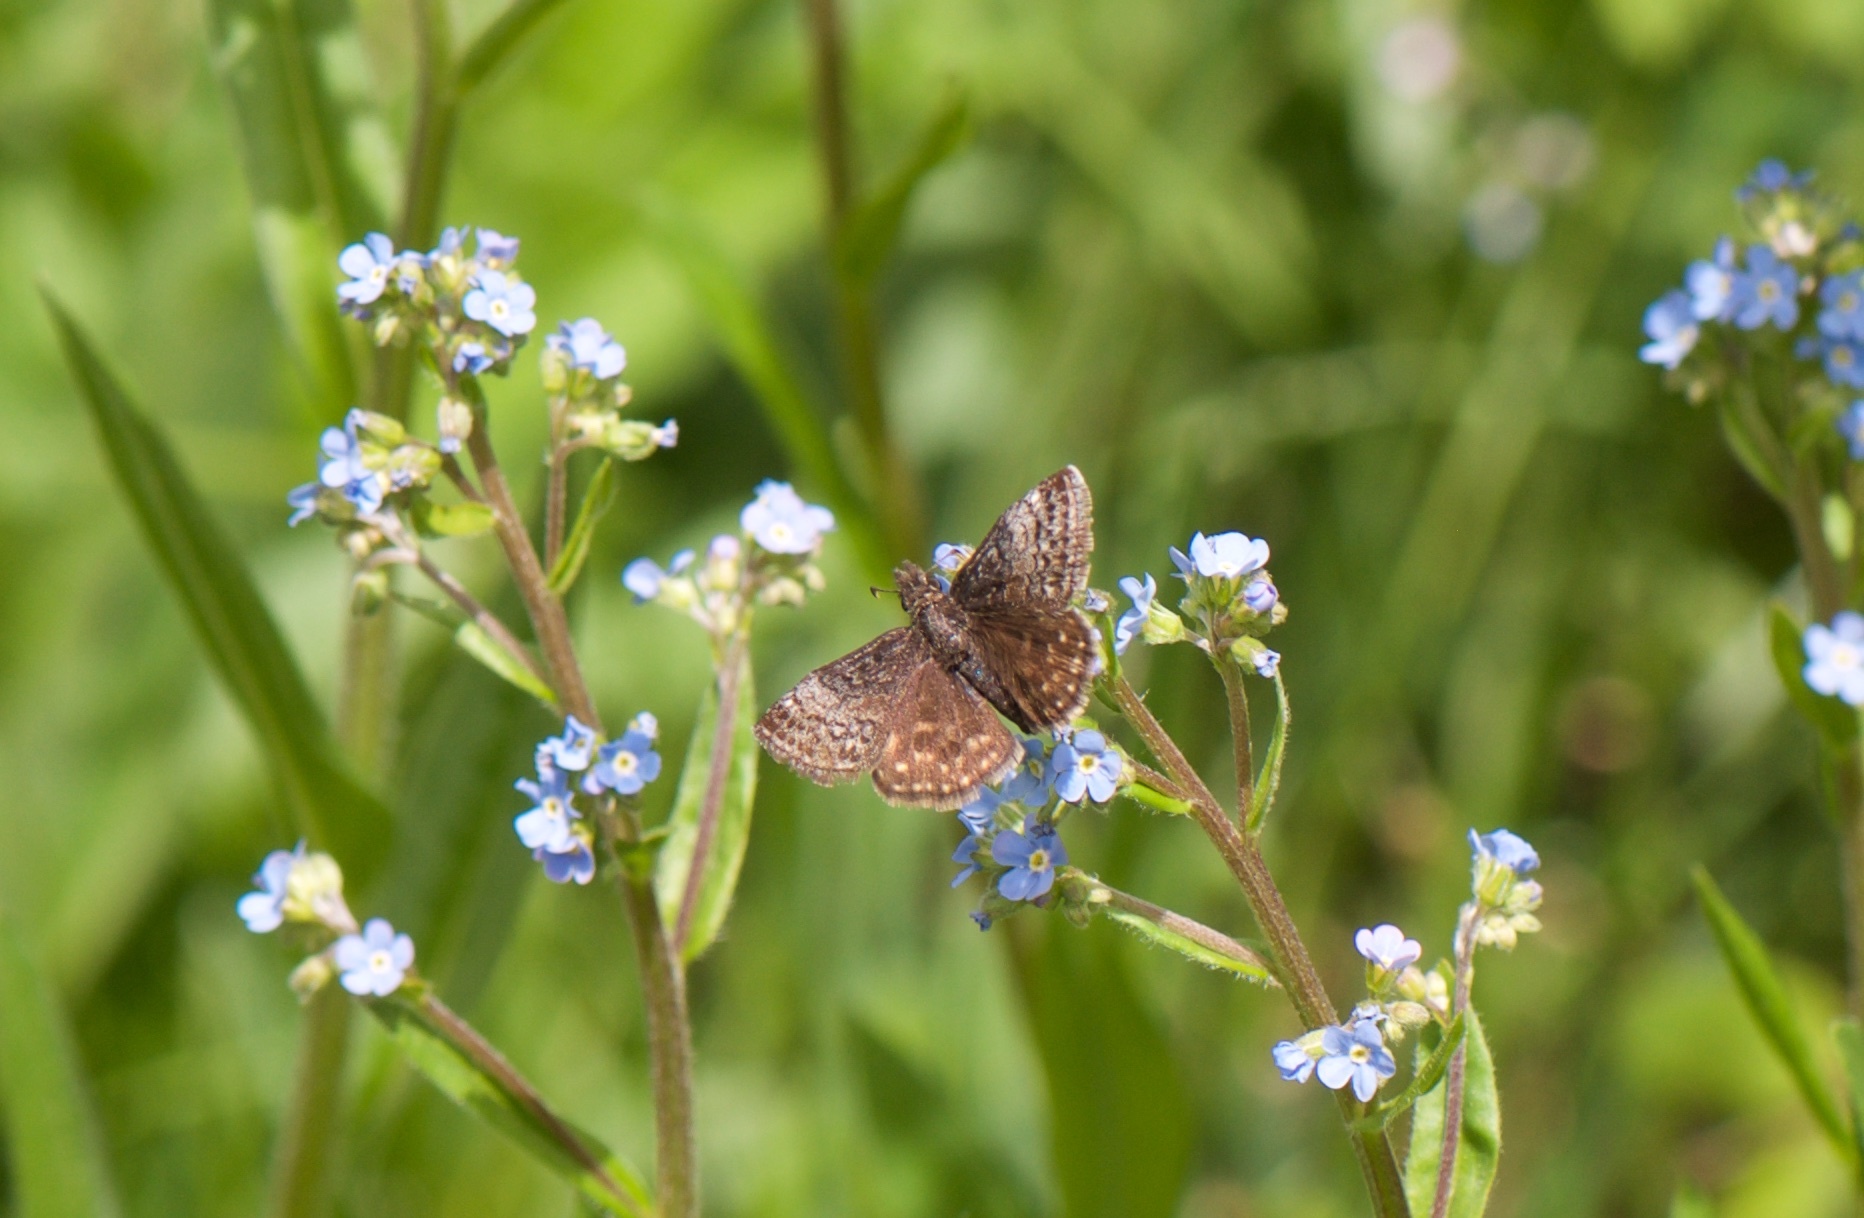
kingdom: Animalia
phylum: Arthropoda
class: Insecta
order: Lepidoptera
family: Hesperiidae
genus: Erynnis
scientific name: Erynnis icelus
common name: Dreamy duskywing
